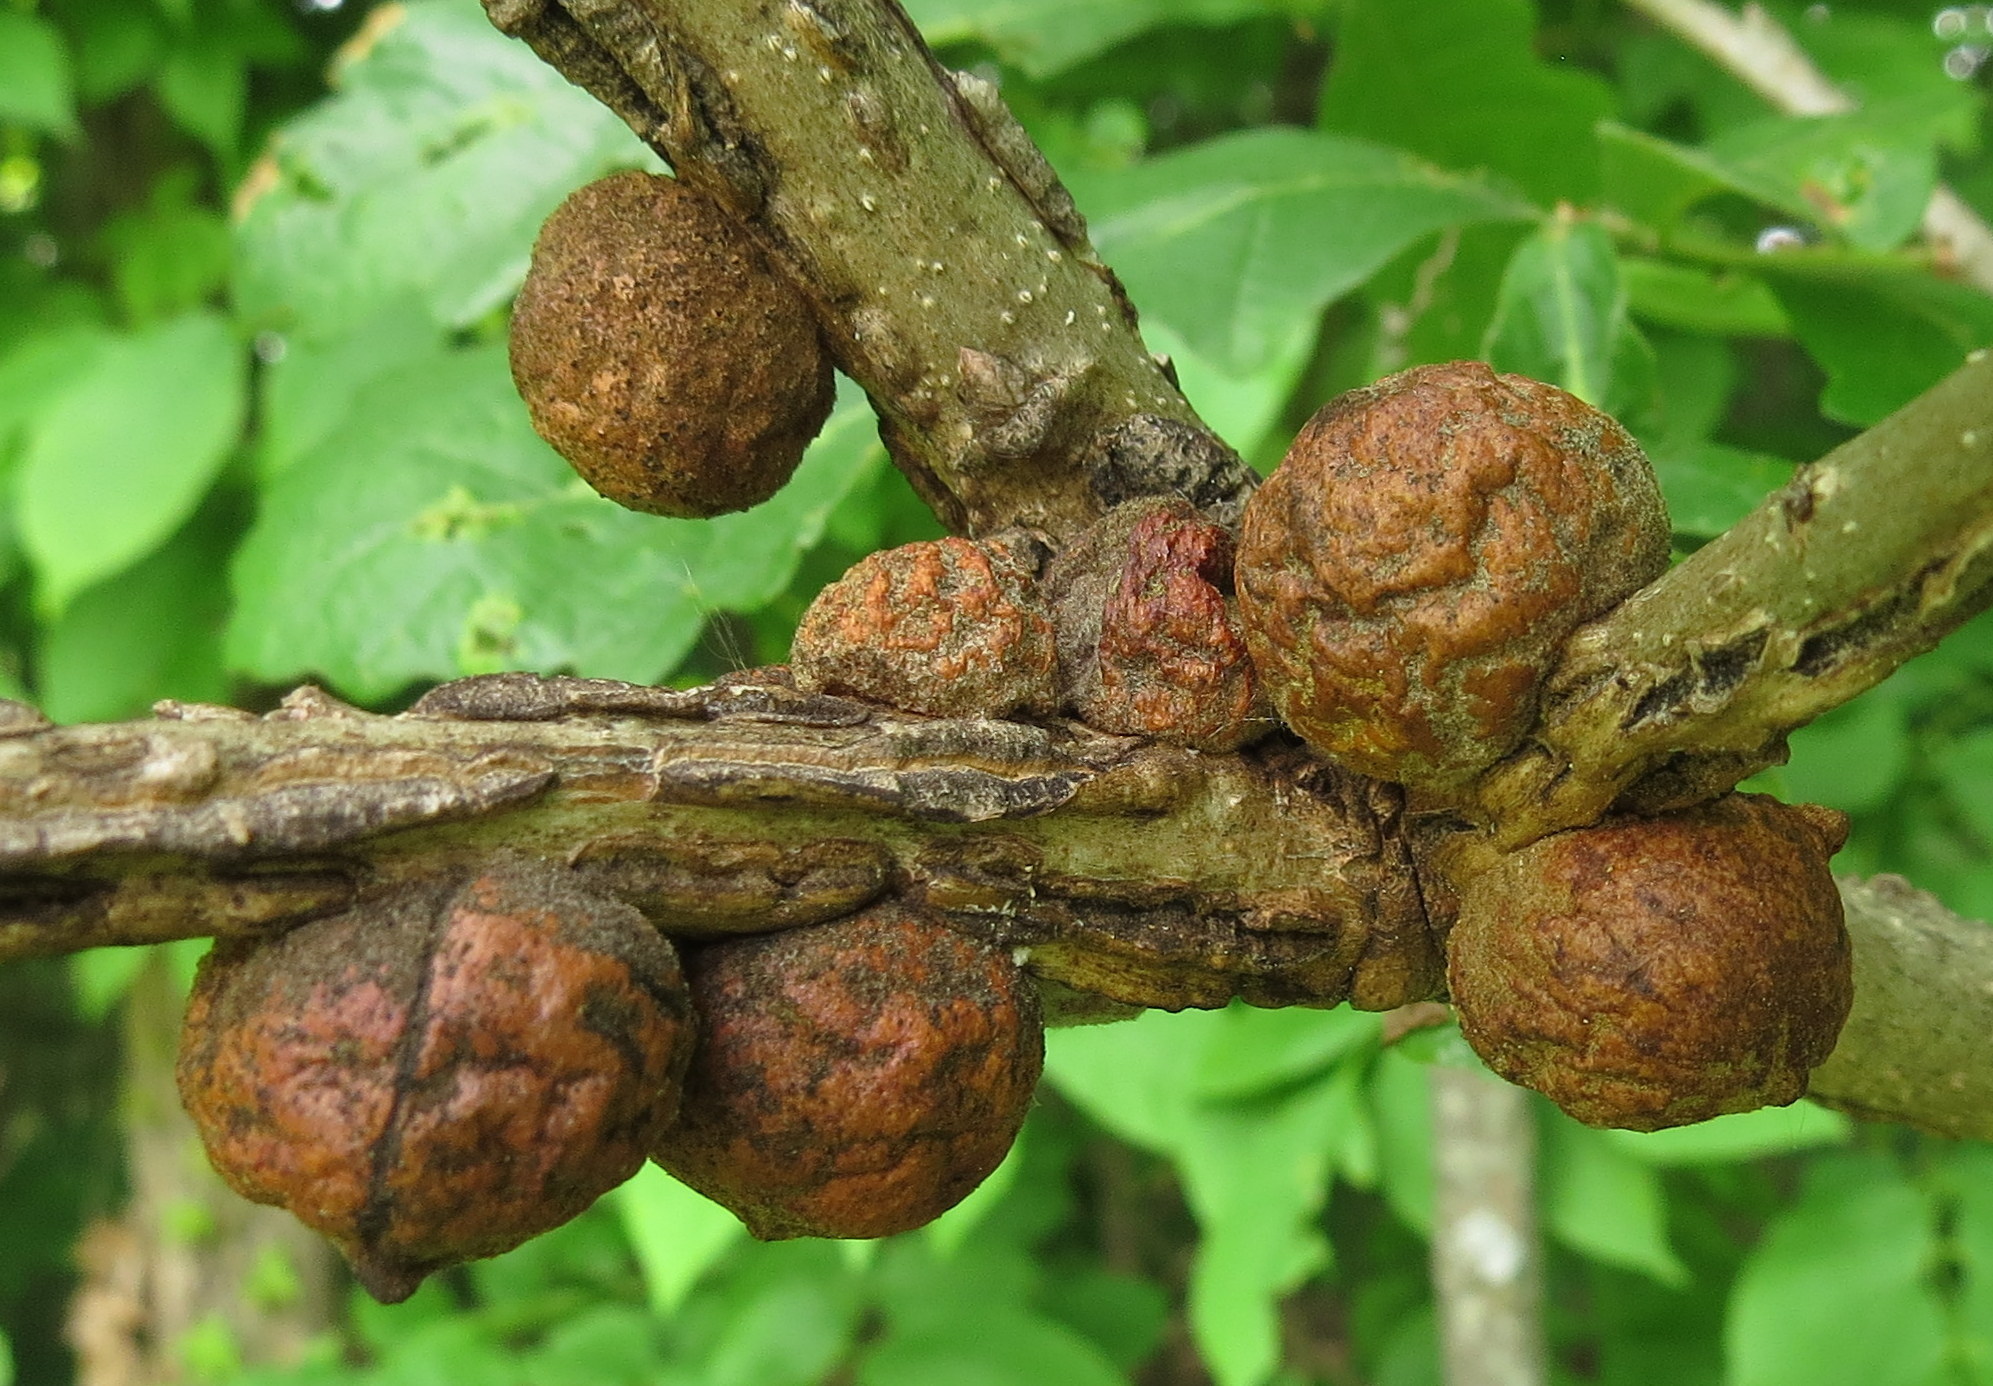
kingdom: Animalia
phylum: Arthropoda
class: Insecta
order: Hymenoptera
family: Cynipidae
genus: Disholcaspis
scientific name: Disholcaspis
